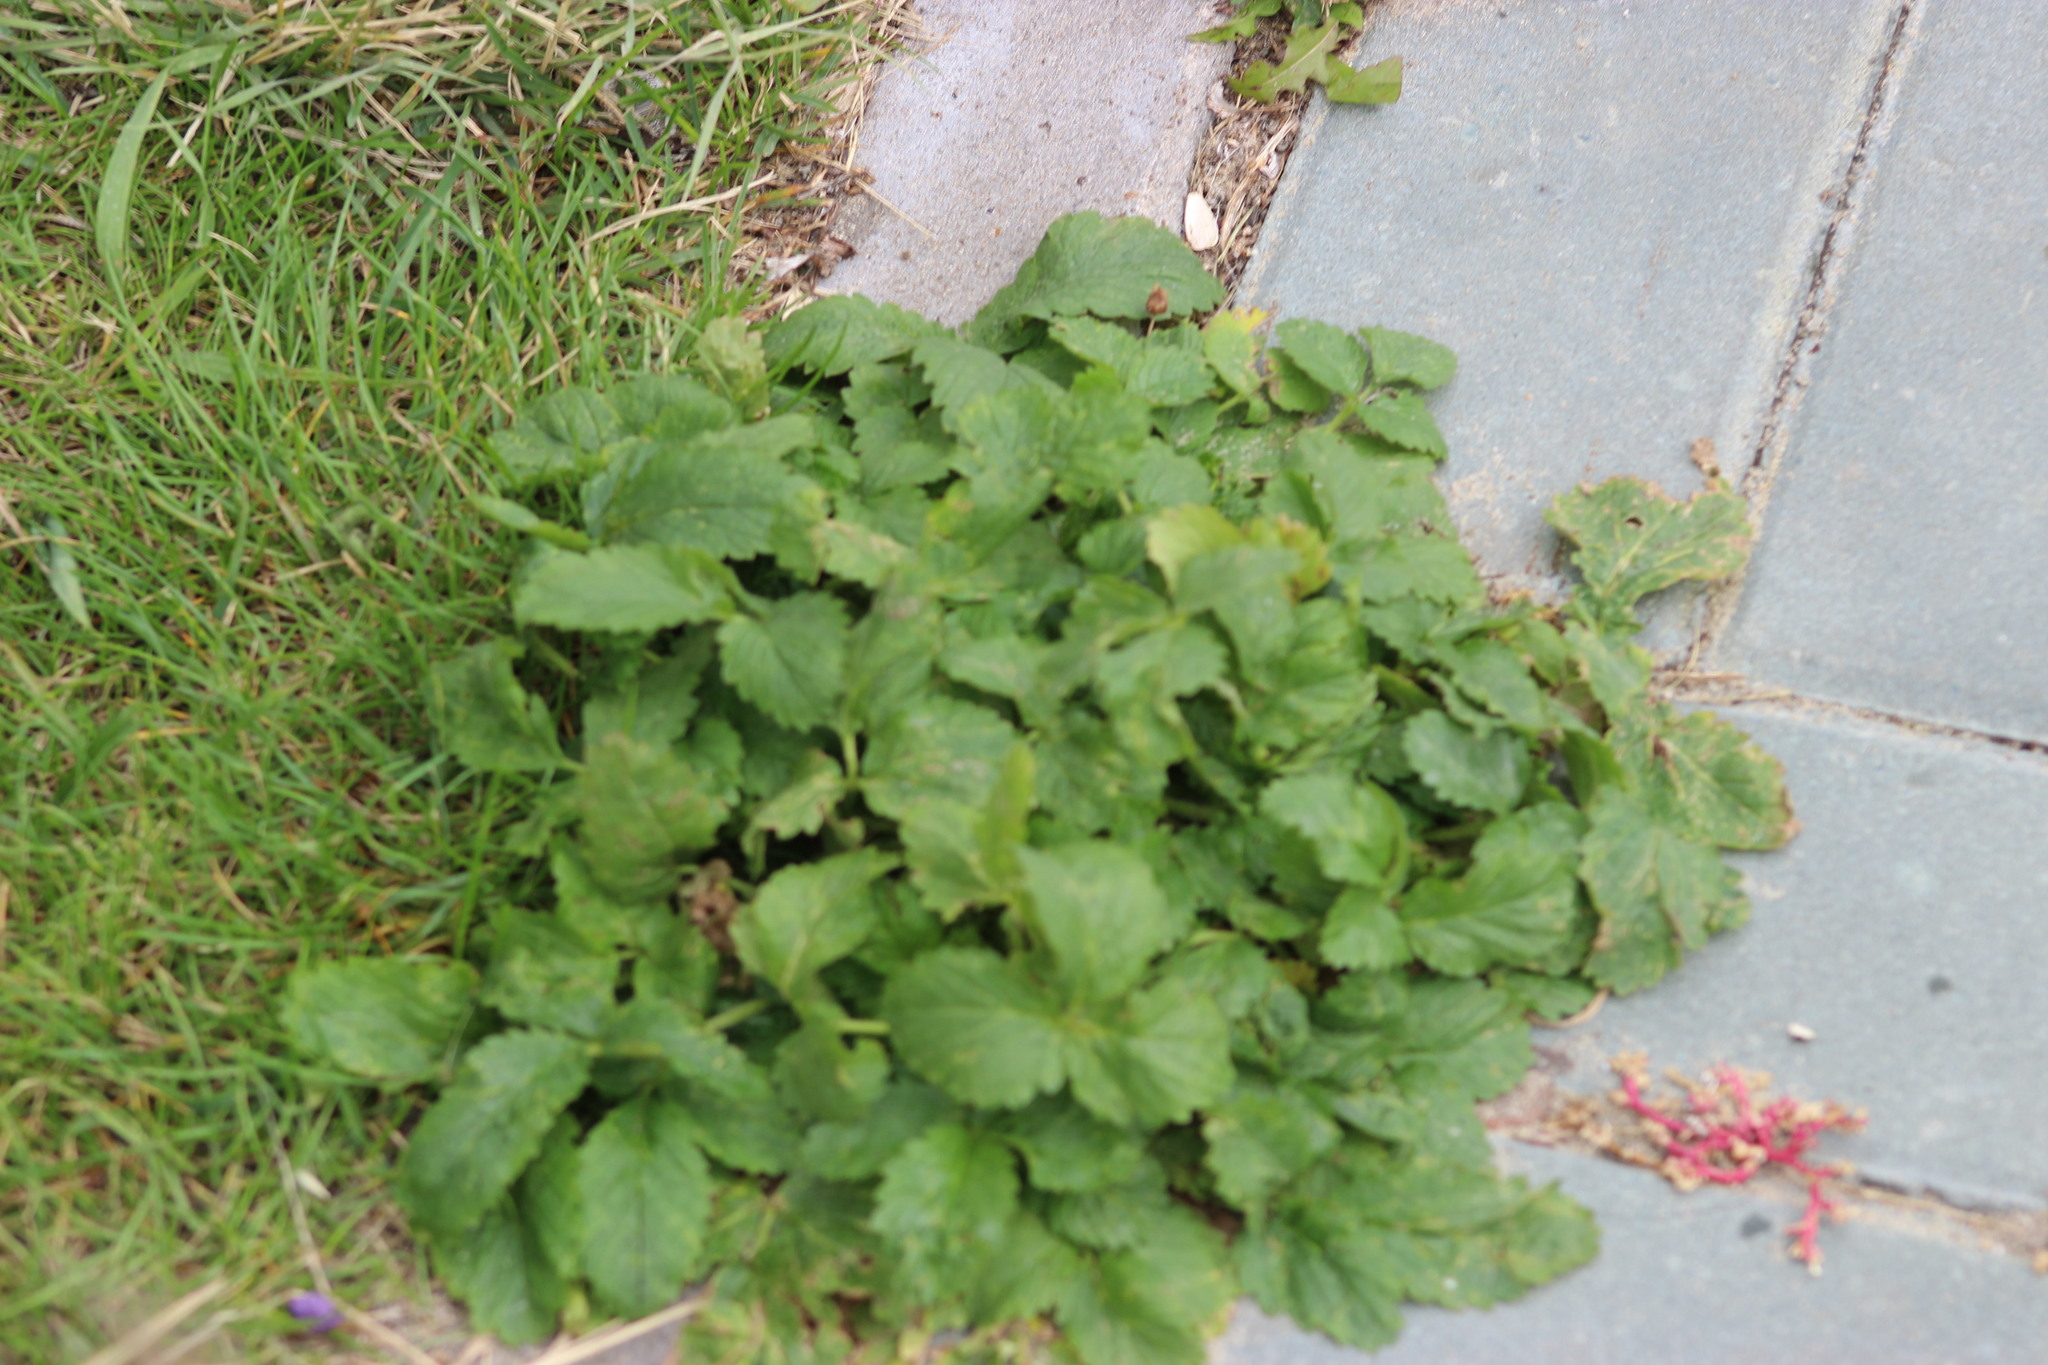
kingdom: Plantae
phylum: Tracheophyta
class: Magnoliopsida
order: Rosales
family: Rosaceae
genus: Potentilla
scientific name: Potentilla norvegica
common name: Ternate-leaved cinquefoil
